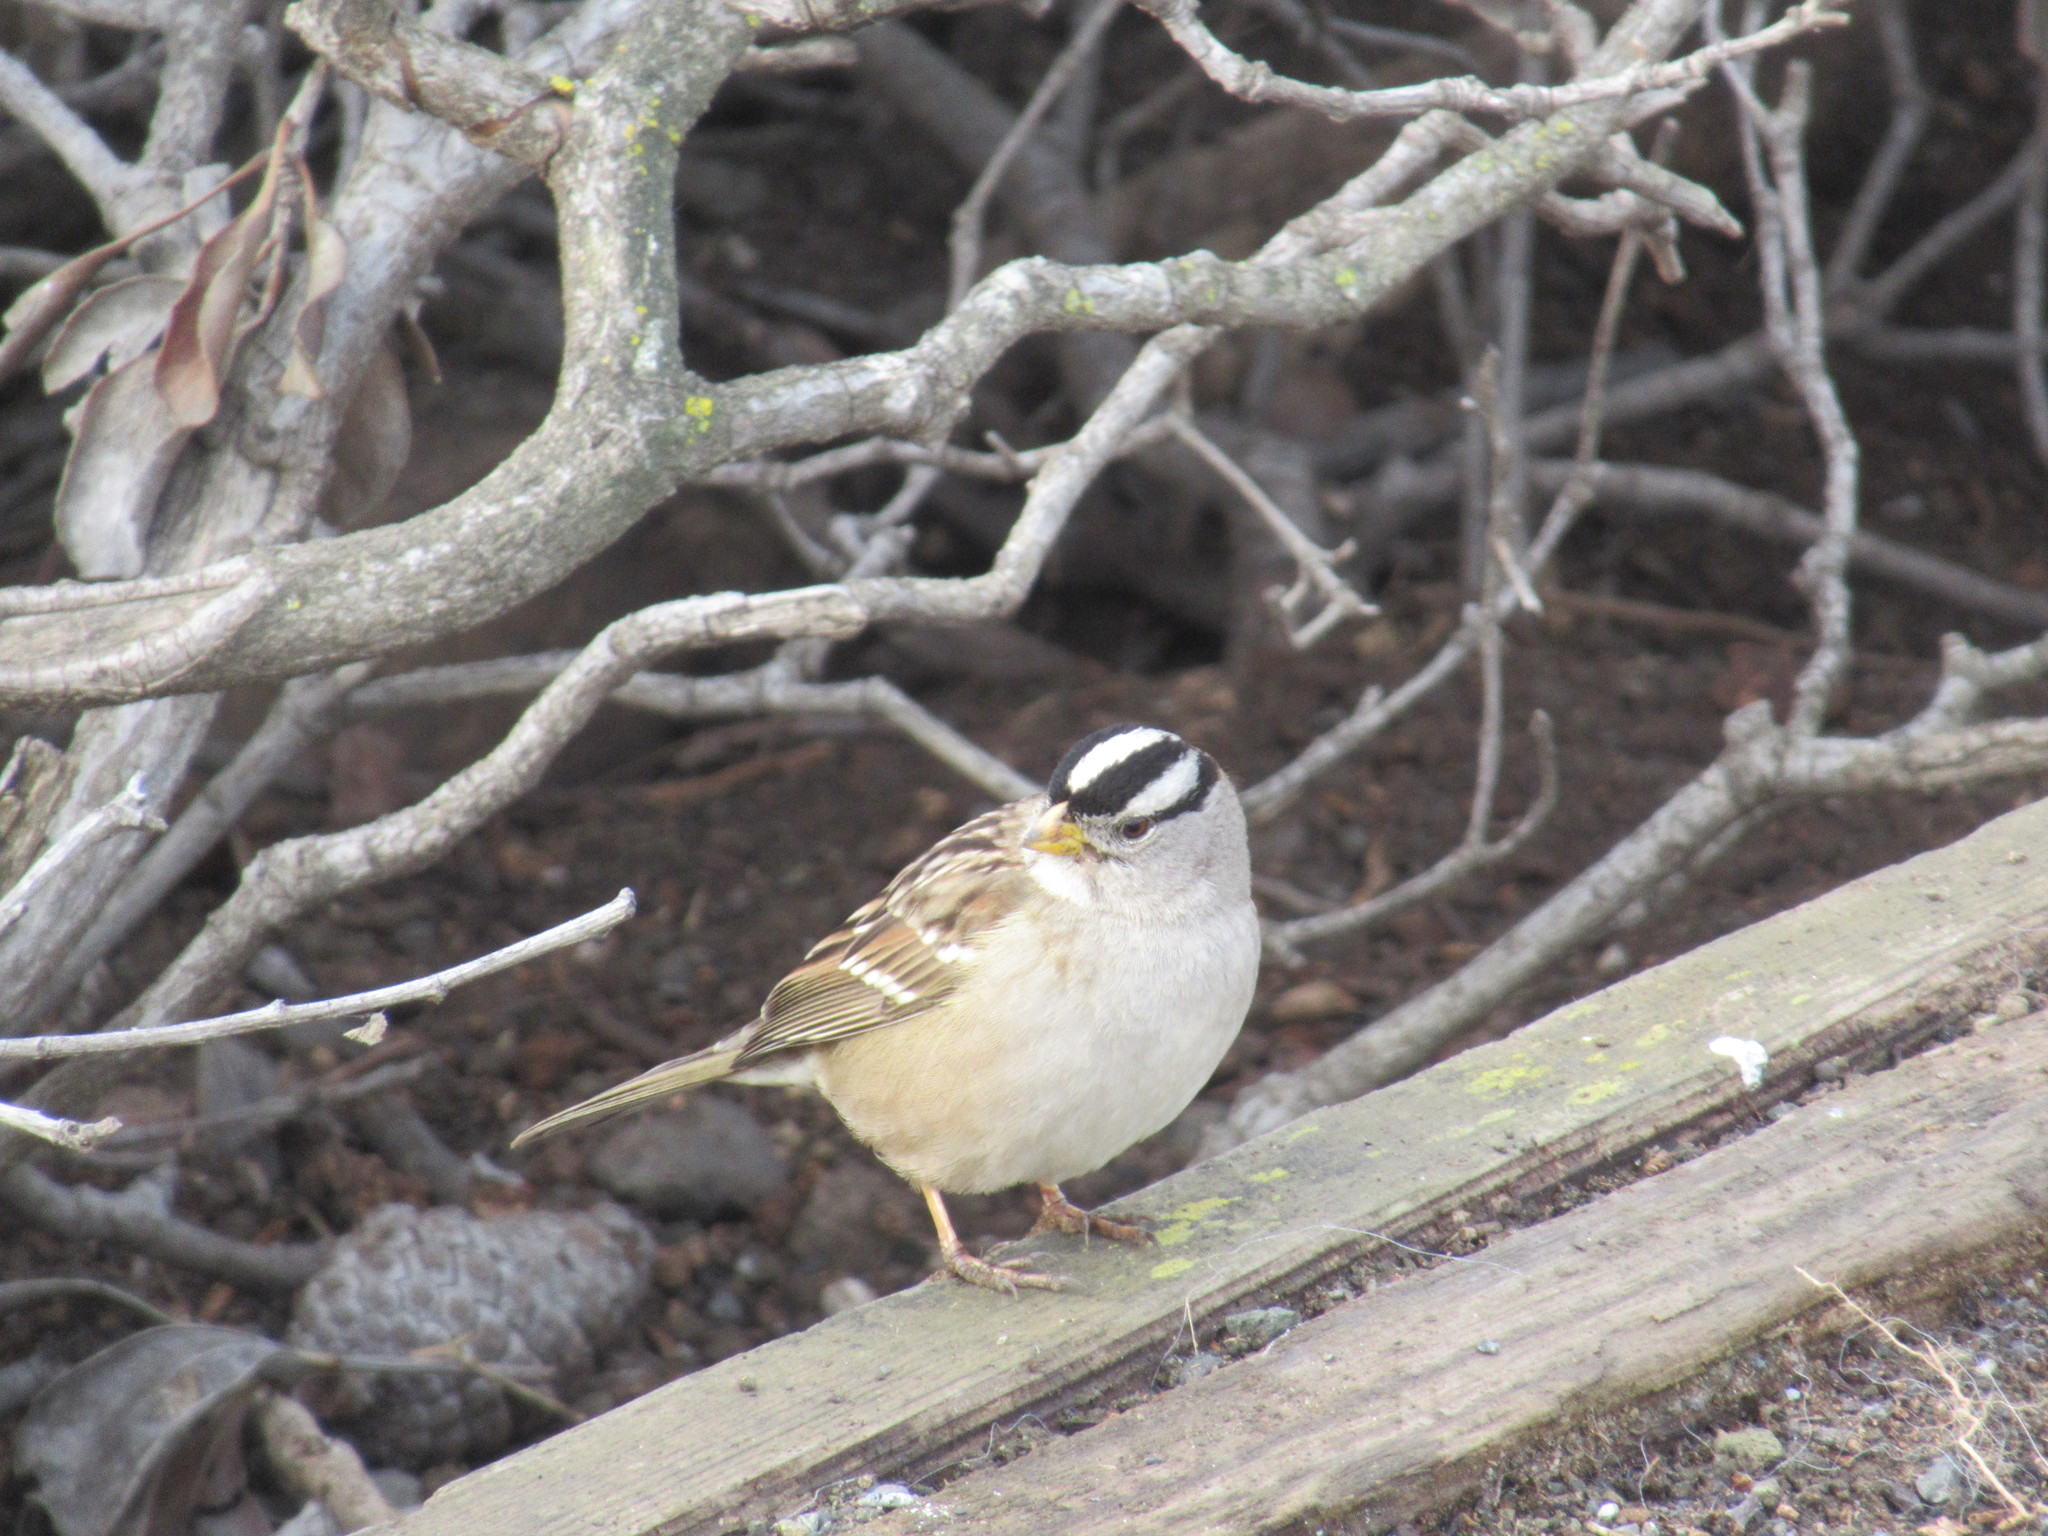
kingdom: Animalia
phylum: Chordata
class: Aves
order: Passeriformes
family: Passerellidae
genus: Zonotrichia
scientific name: Zonotrichia leucophrys
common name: White-crowned sparrow
